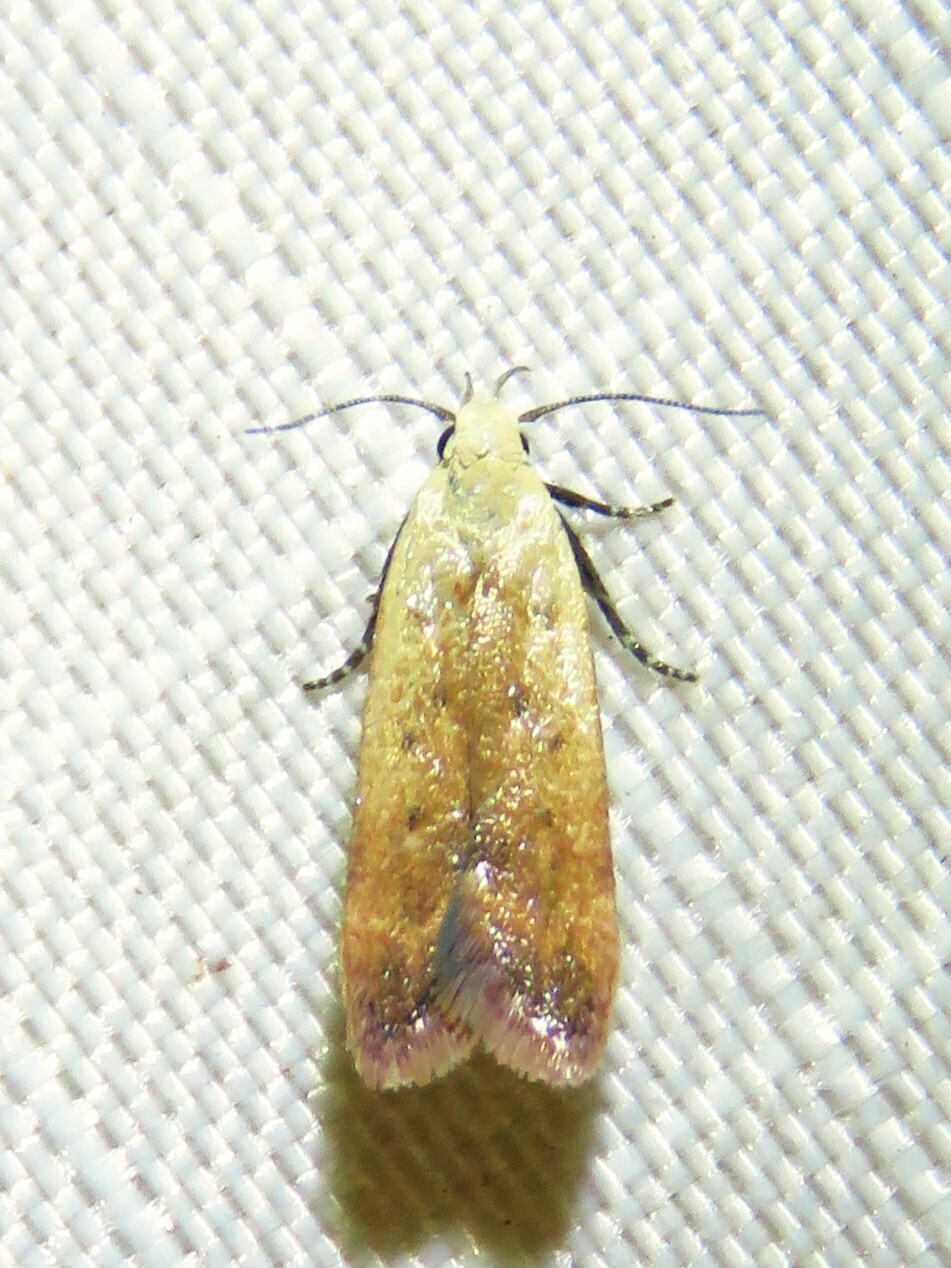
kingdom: Animalia
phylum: Arthropoda
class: Insecta
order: Lepidoptera
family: Gelechiidae
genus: Anacampsis
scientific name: Anacampsis fullonella
